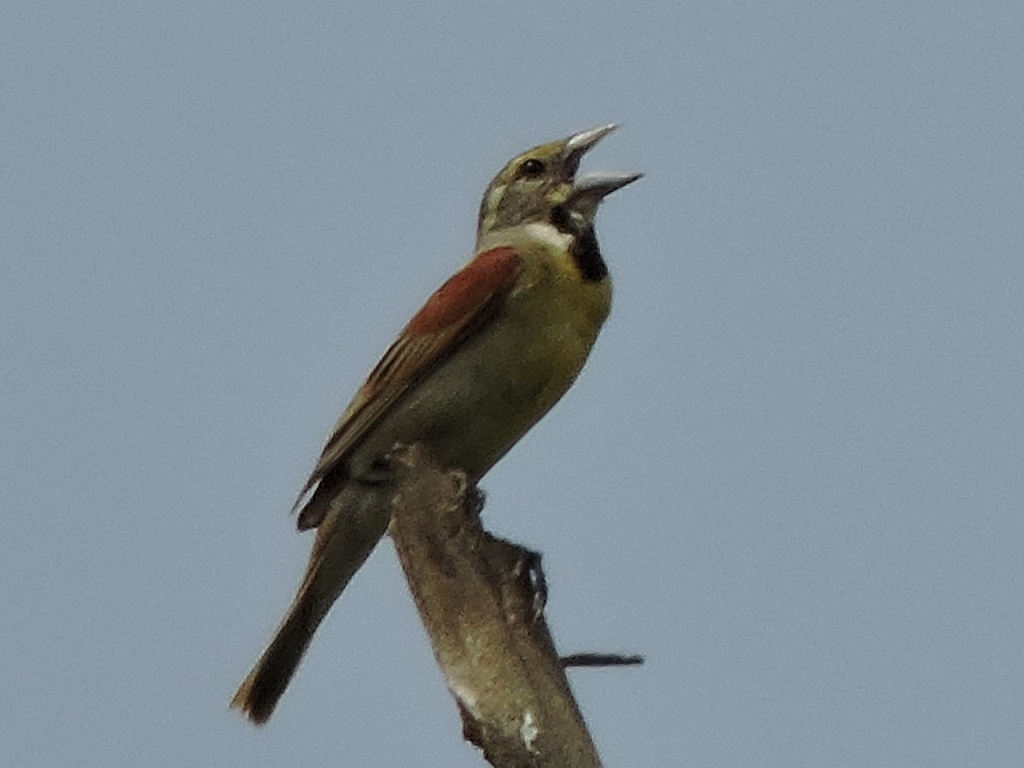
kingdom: Animalia
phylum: Chordata
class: Aves
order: Passeriformes
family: Cardinalidae
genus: Spiza
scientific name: Spiza americana
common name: Dickcissel
